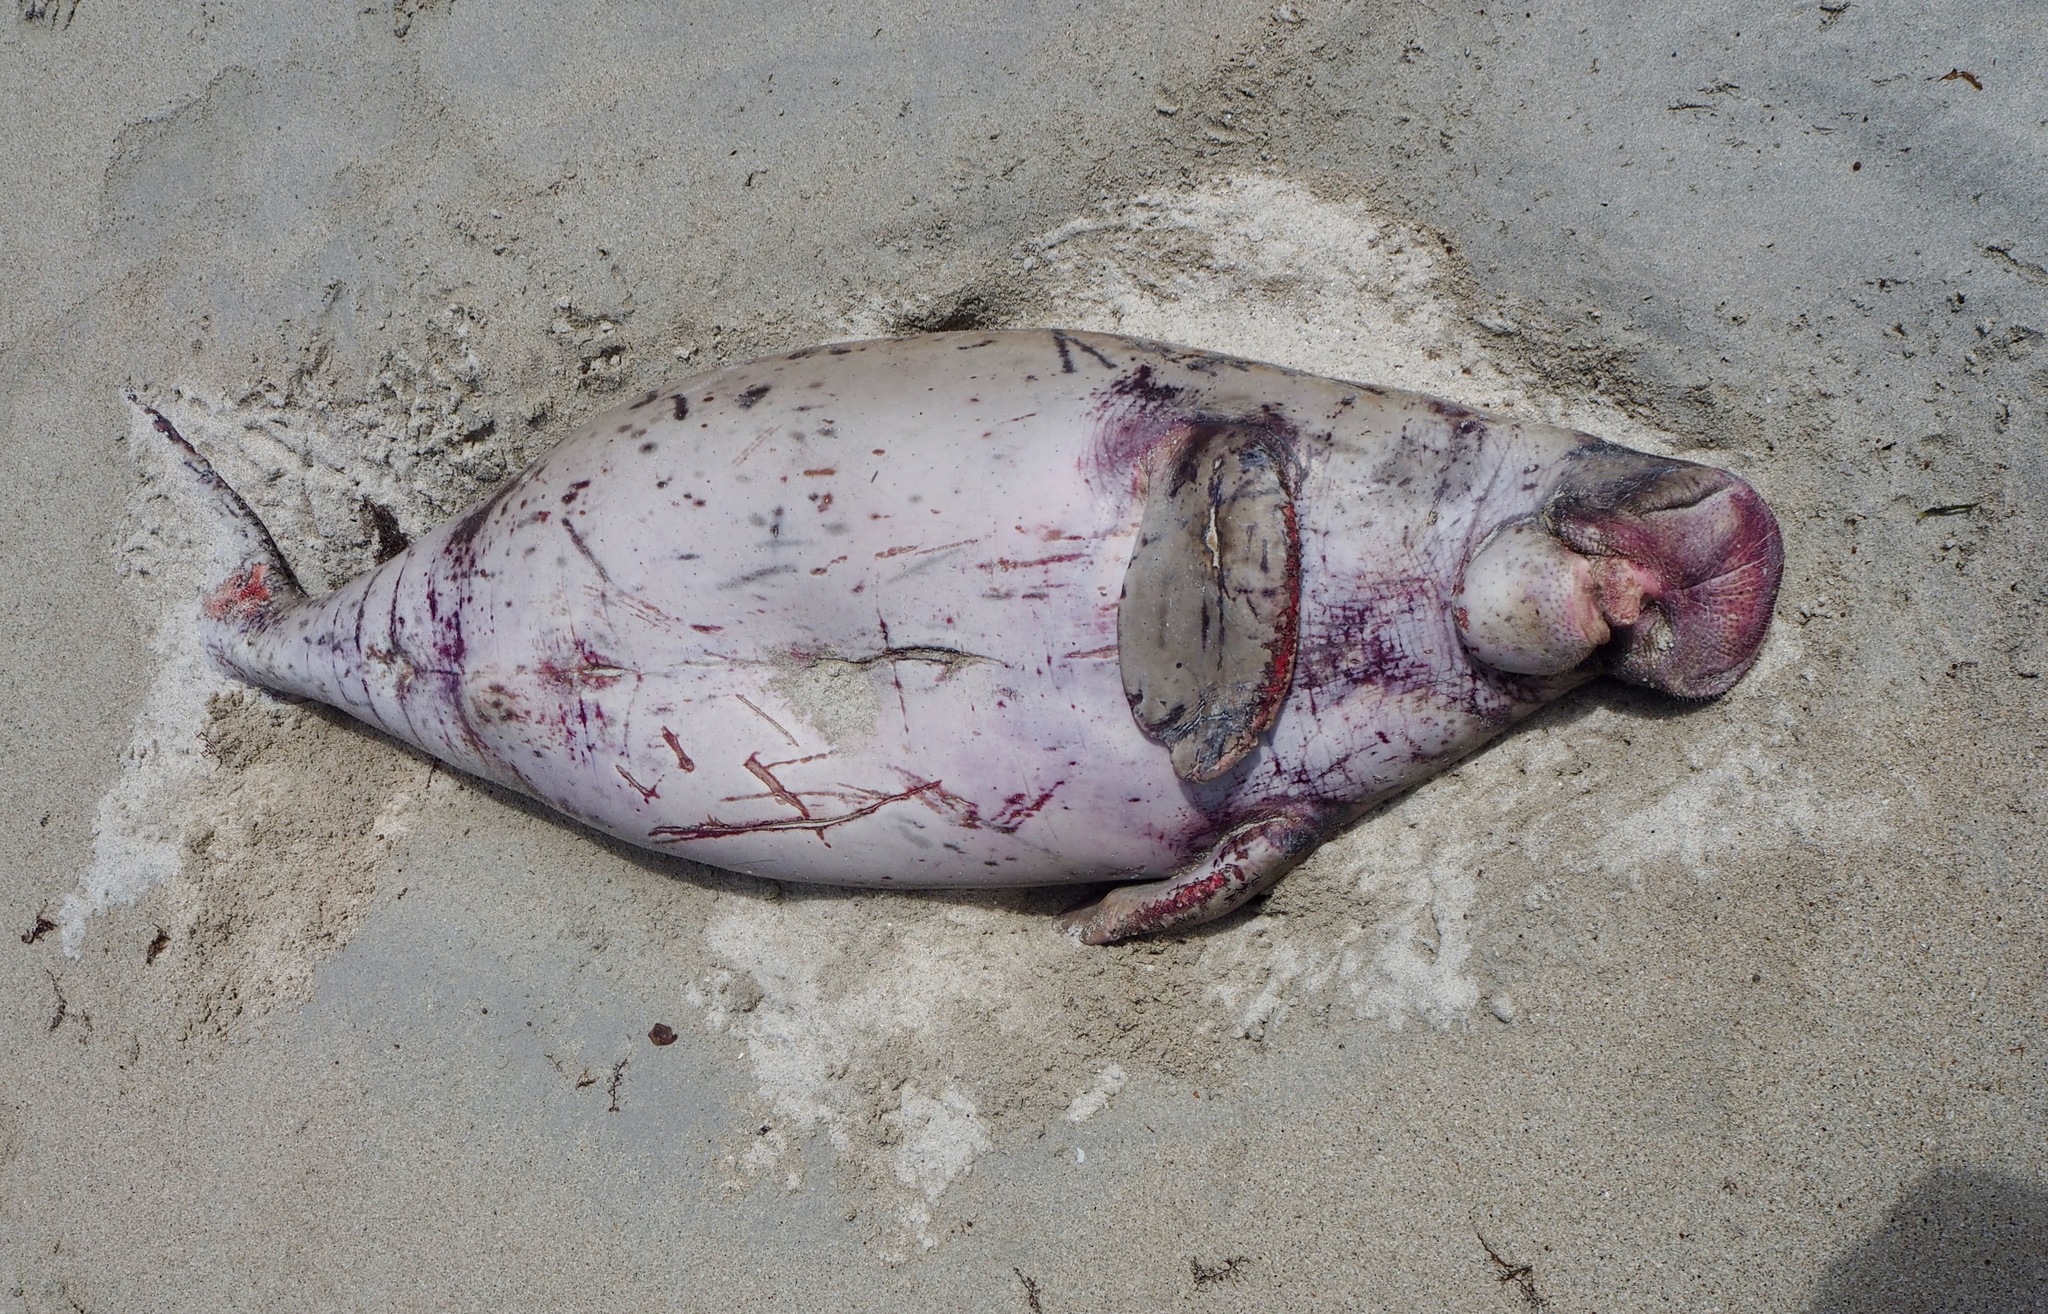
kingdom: Animalia
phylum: Chordata
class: Mammalia
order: Sirenia
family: Dugongidae
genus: Dugong
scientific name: Dugong dugon
